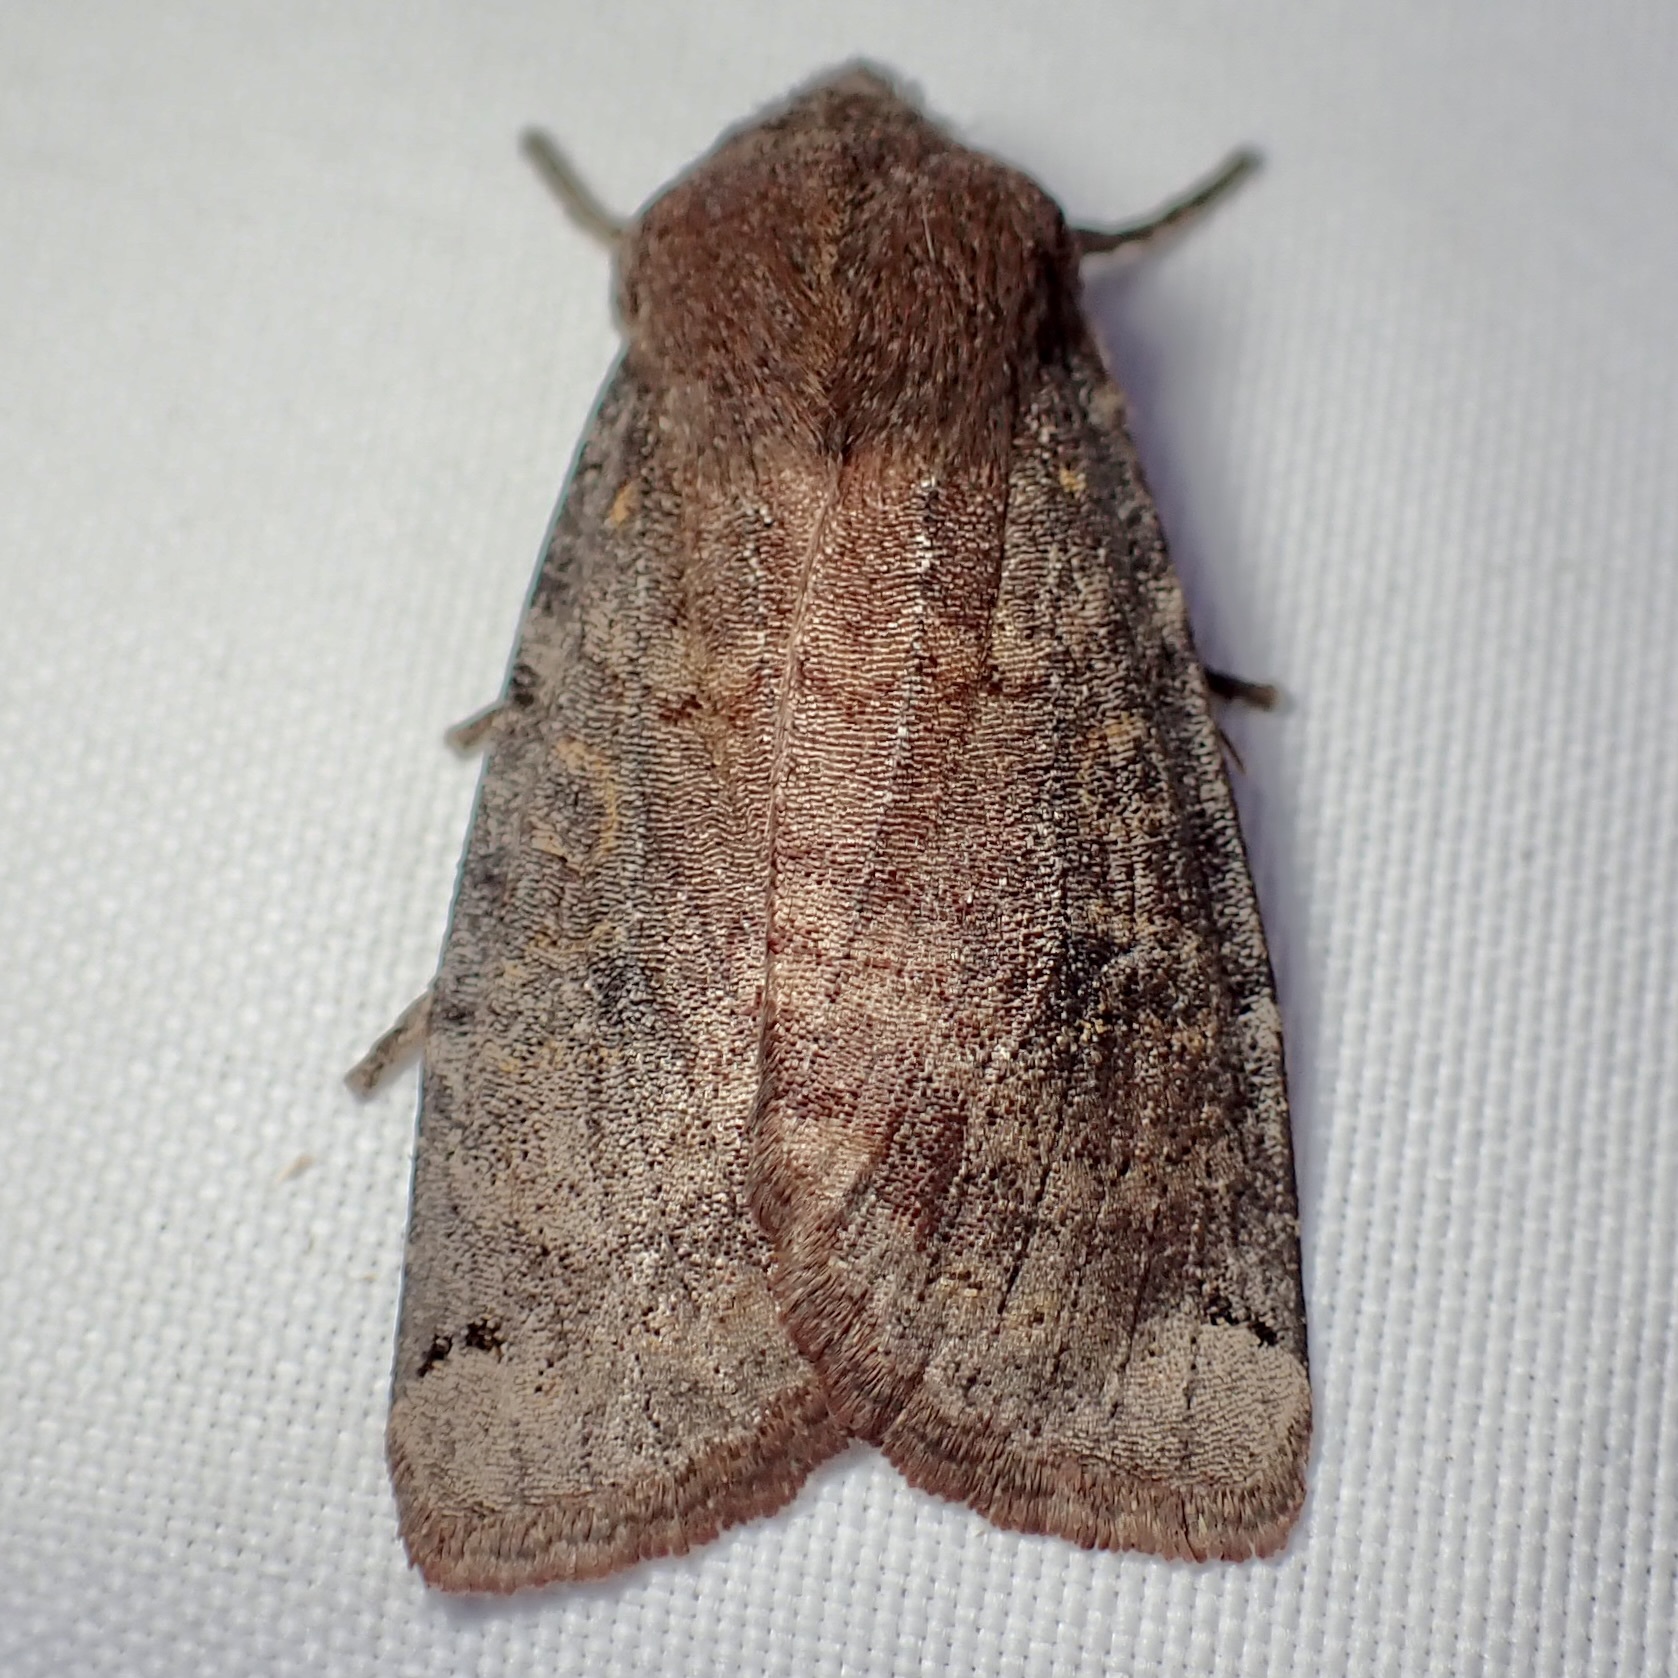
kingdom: Animalia
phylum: Arthropoda
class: Insecta
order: Lepidoptera
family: Noctuidae
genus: Noctua
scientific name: Noctua pronuba
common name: Large yellow underwing
